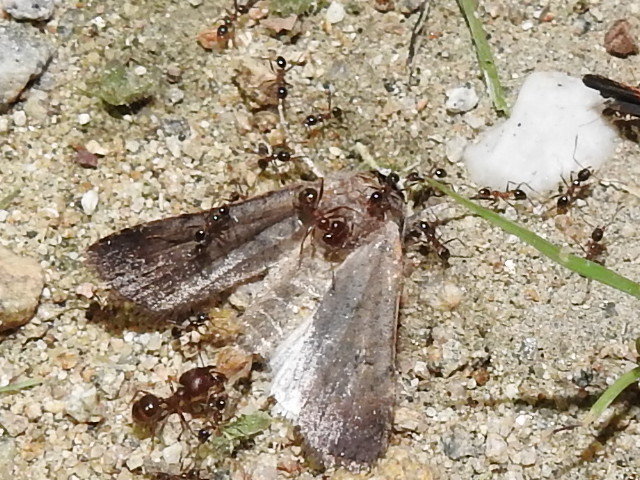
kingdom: Animalia
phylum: Arthropoda
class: Insecta
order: Hymenoptera
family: Formicidae
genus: Pheidole
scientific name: Pheidole obtusospinosa
